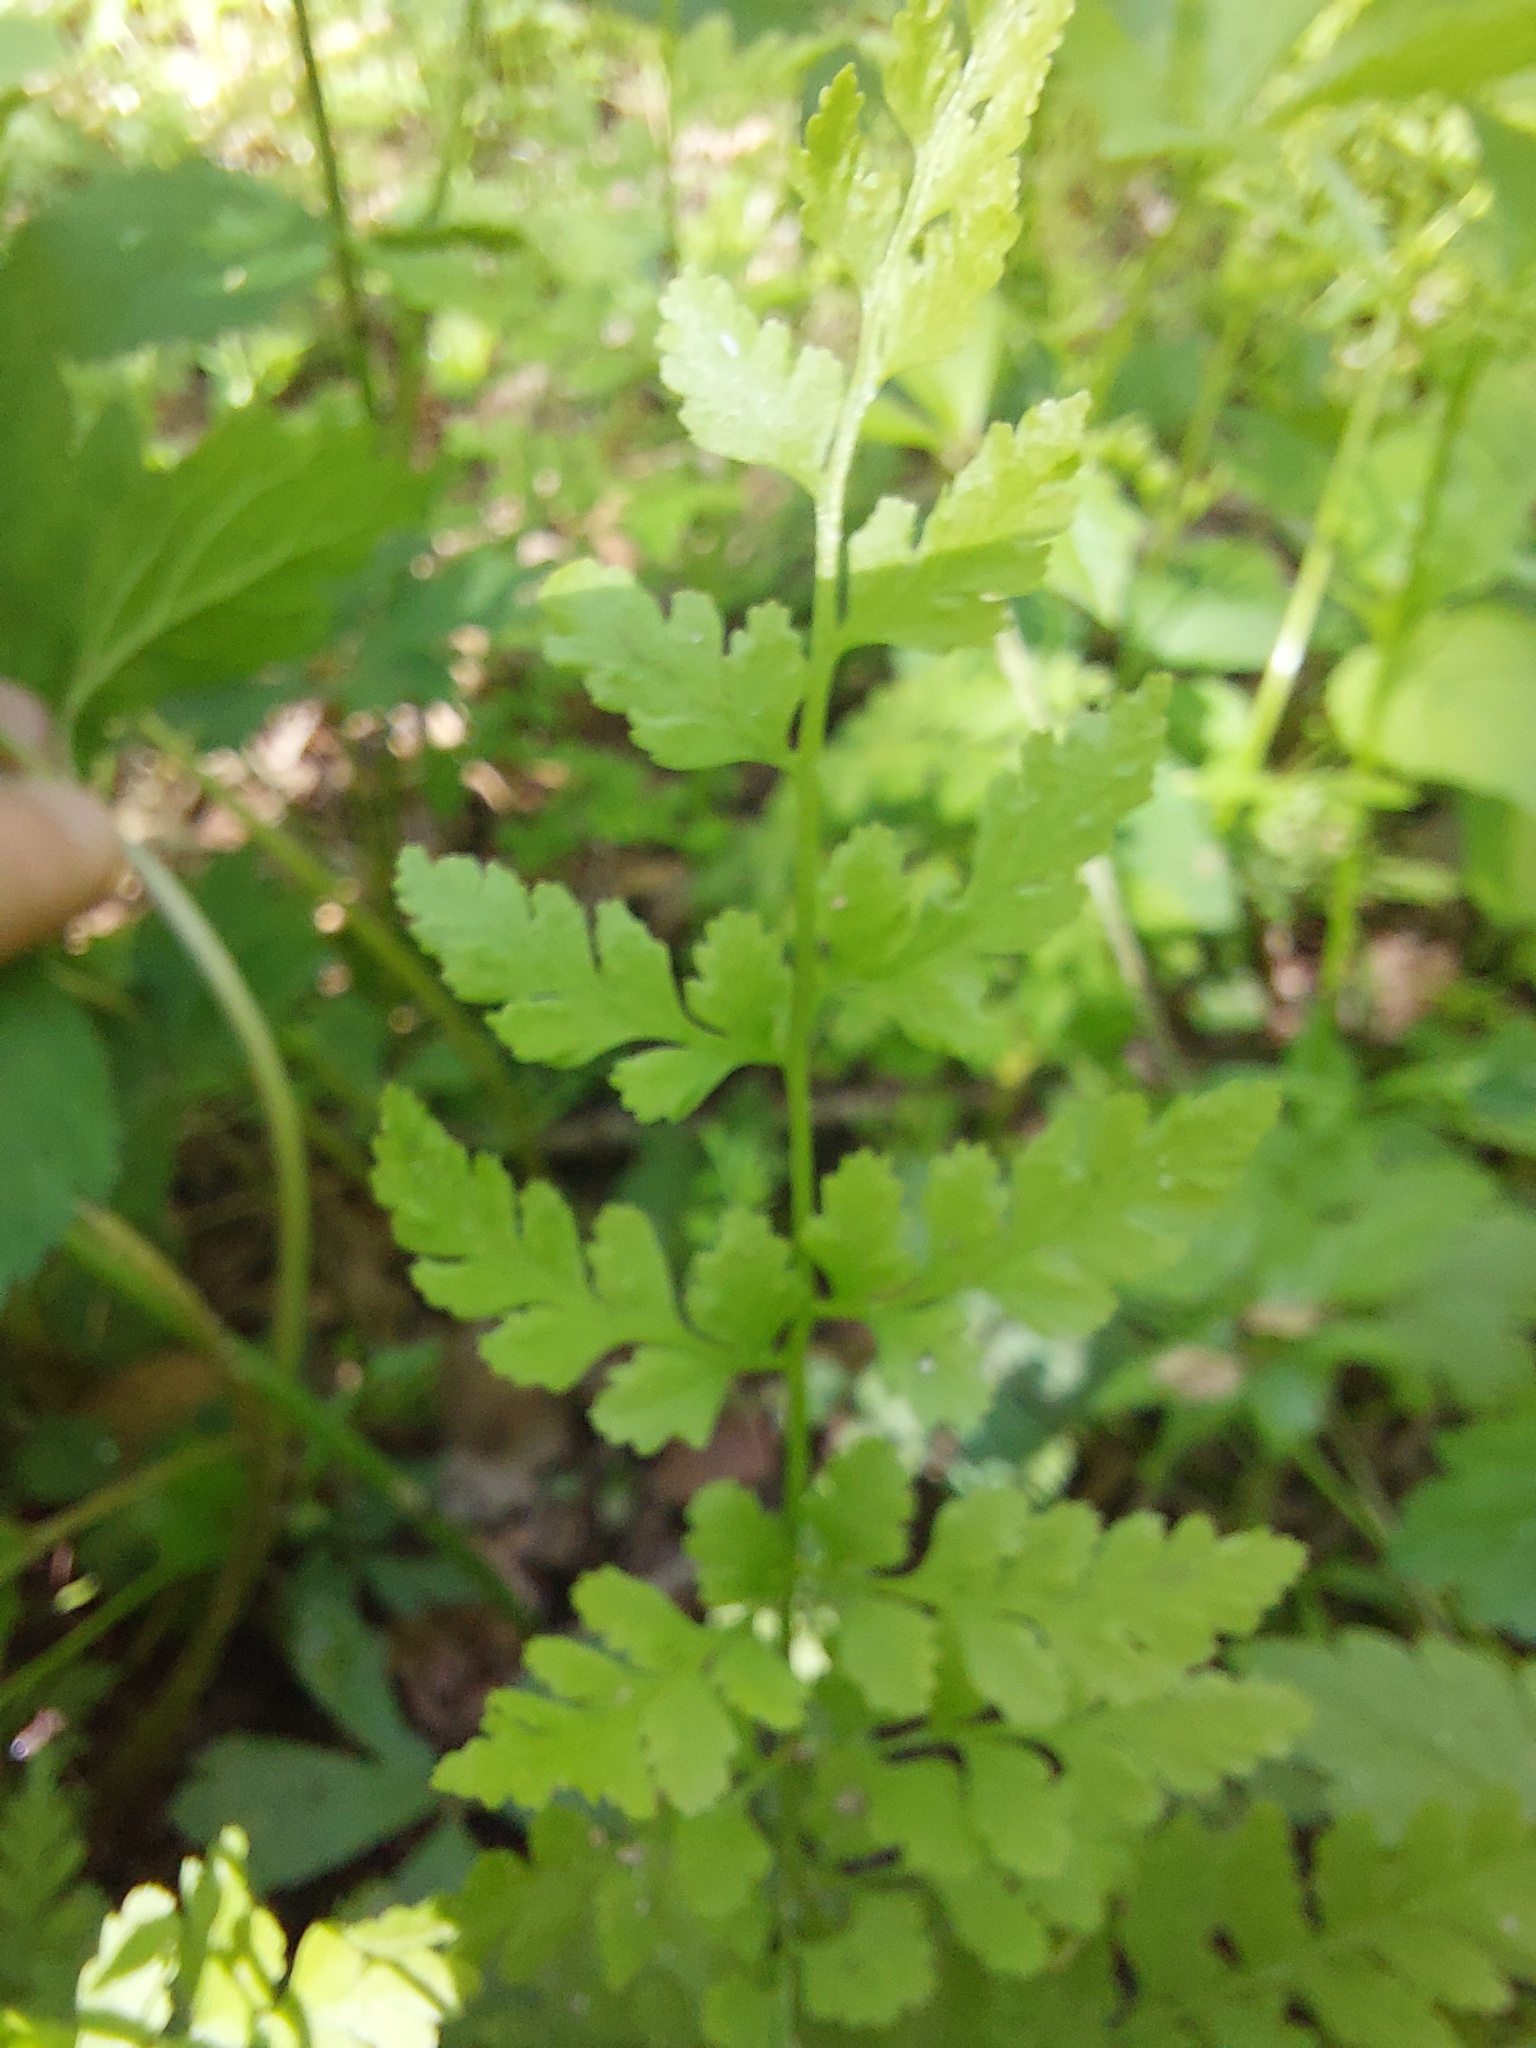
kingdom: Plantae
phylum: Tracheophyta
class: Polypodiopsida
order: Polypodiales
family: Cystopteridaceae
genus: Cystopteris
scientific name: Cystopteris protrusa
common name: Lowland brittle fern
